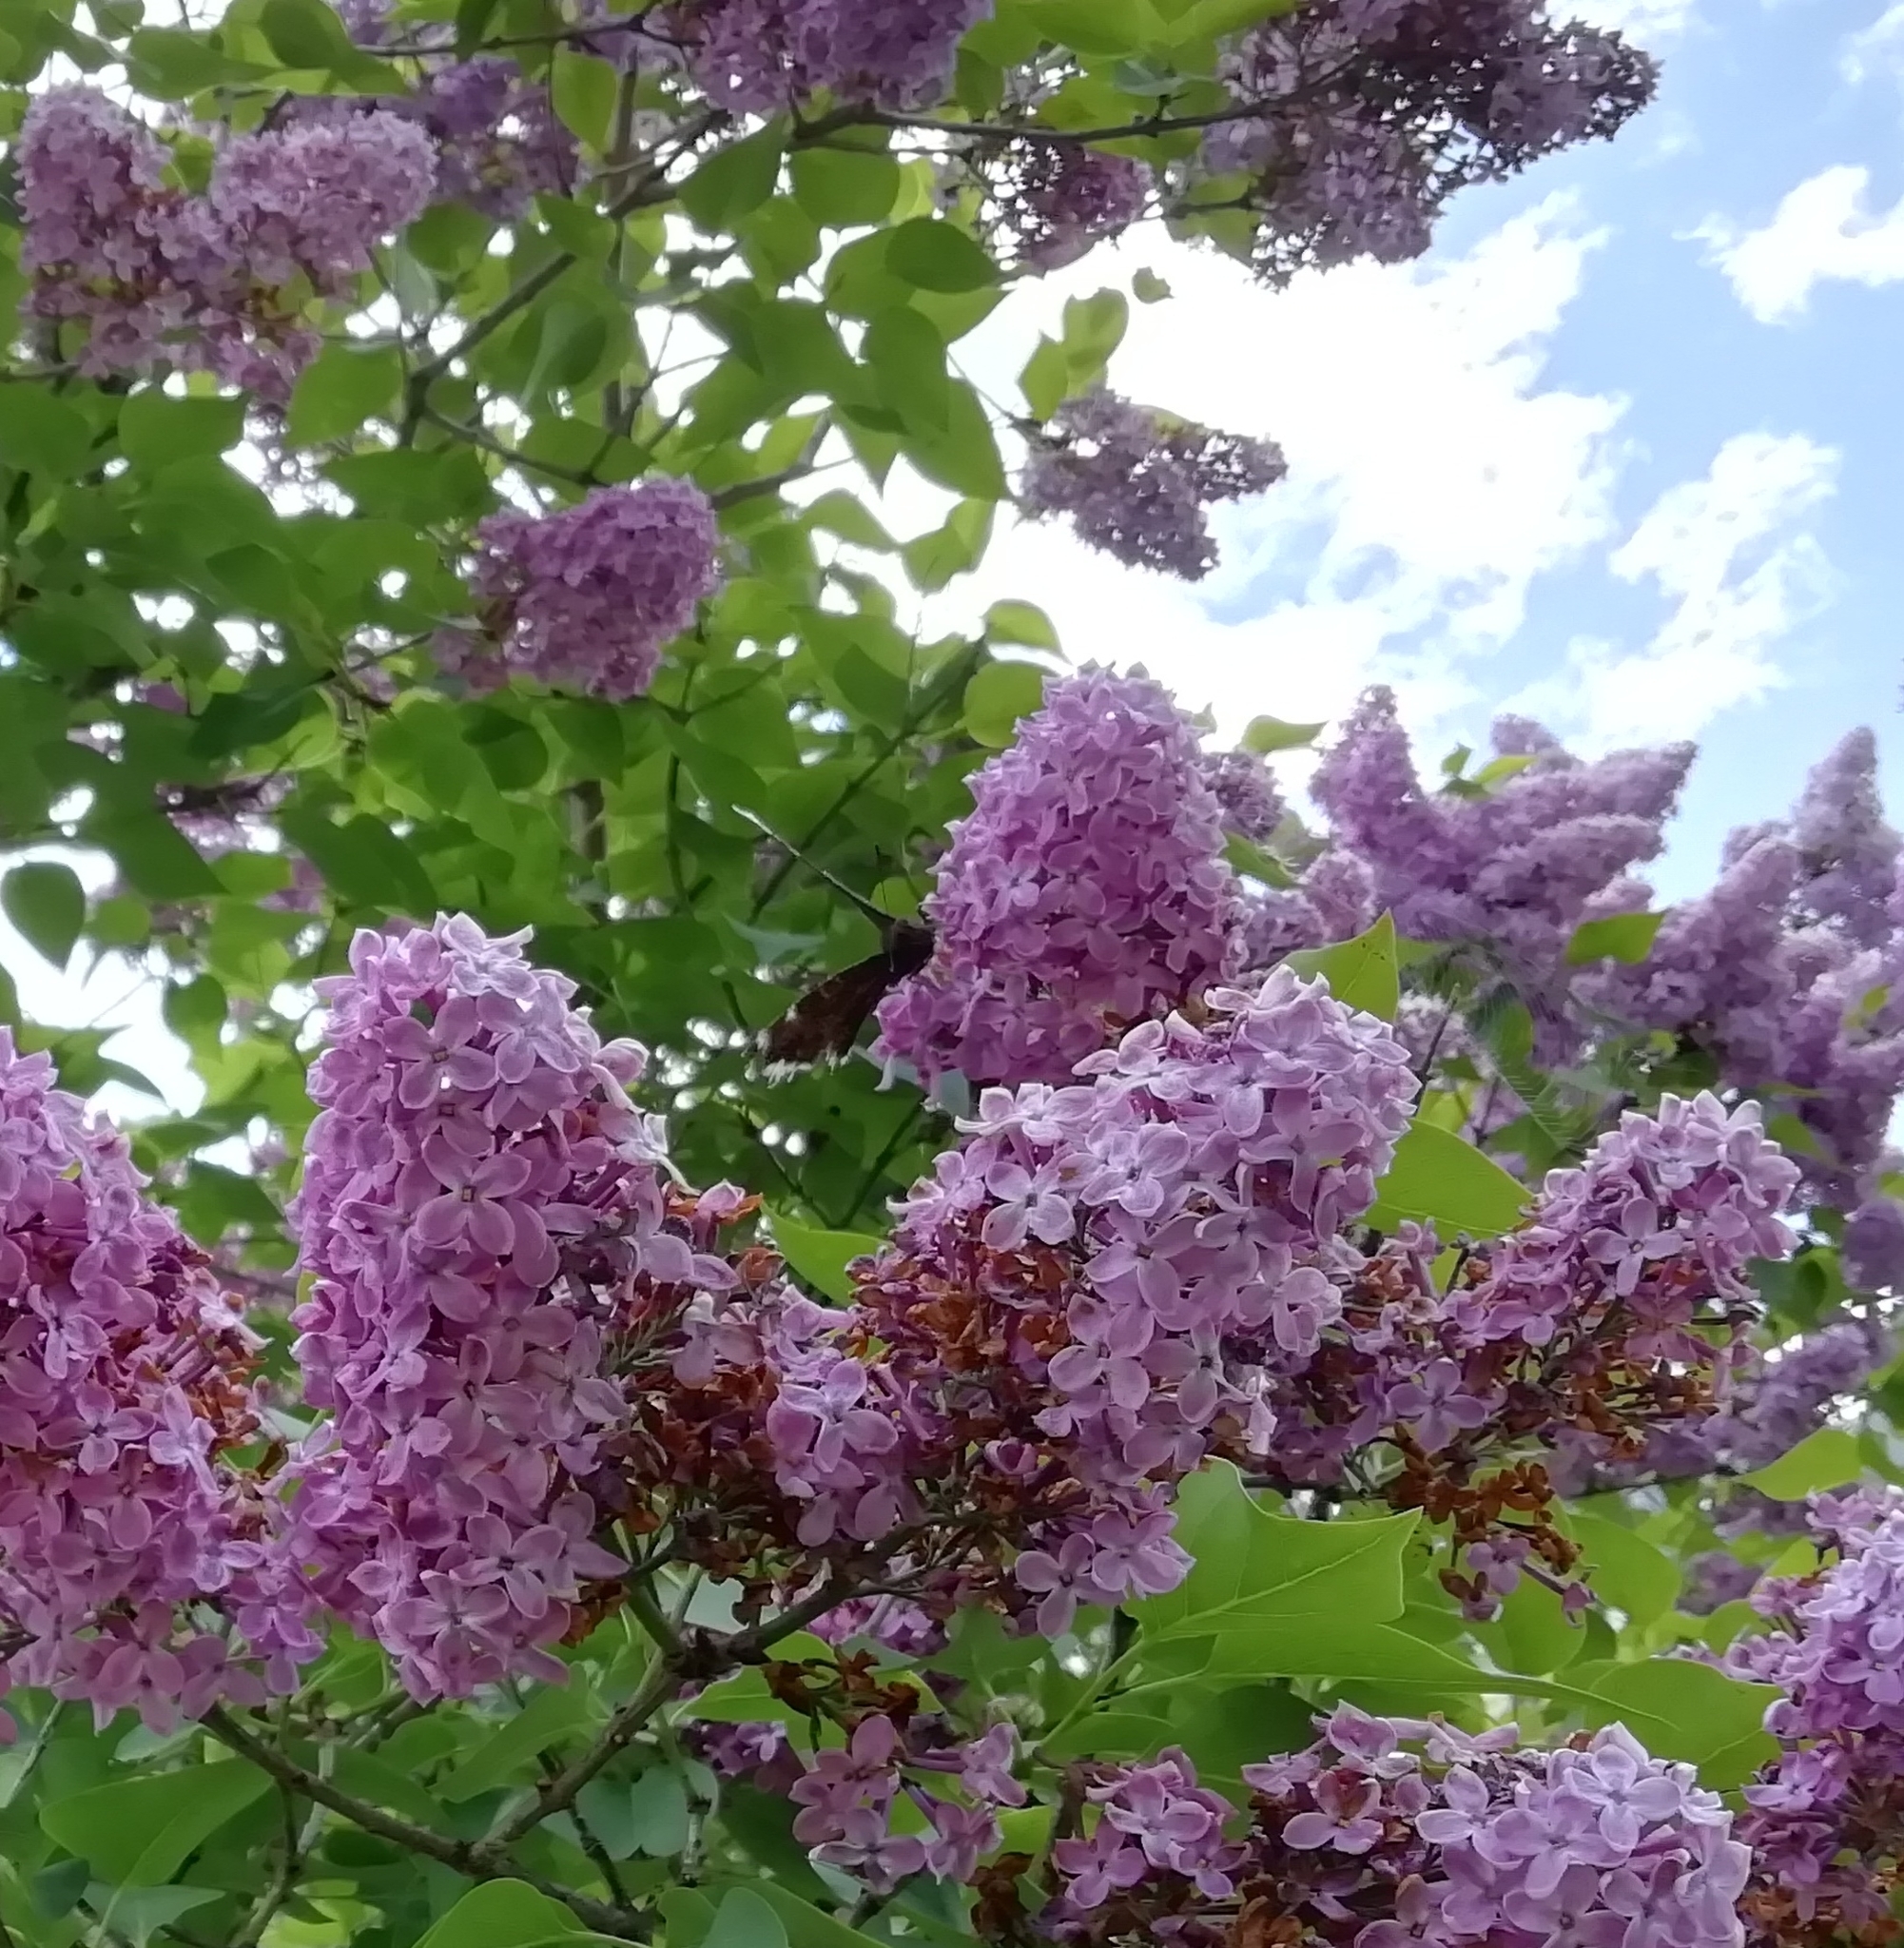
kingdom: Animalia
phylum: Arthropoda
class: Insecta
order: Lepidoptera
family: Nymphalidae
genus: Nymphalis
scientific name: Nymphalis antiopa
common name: Camberwell beauty
